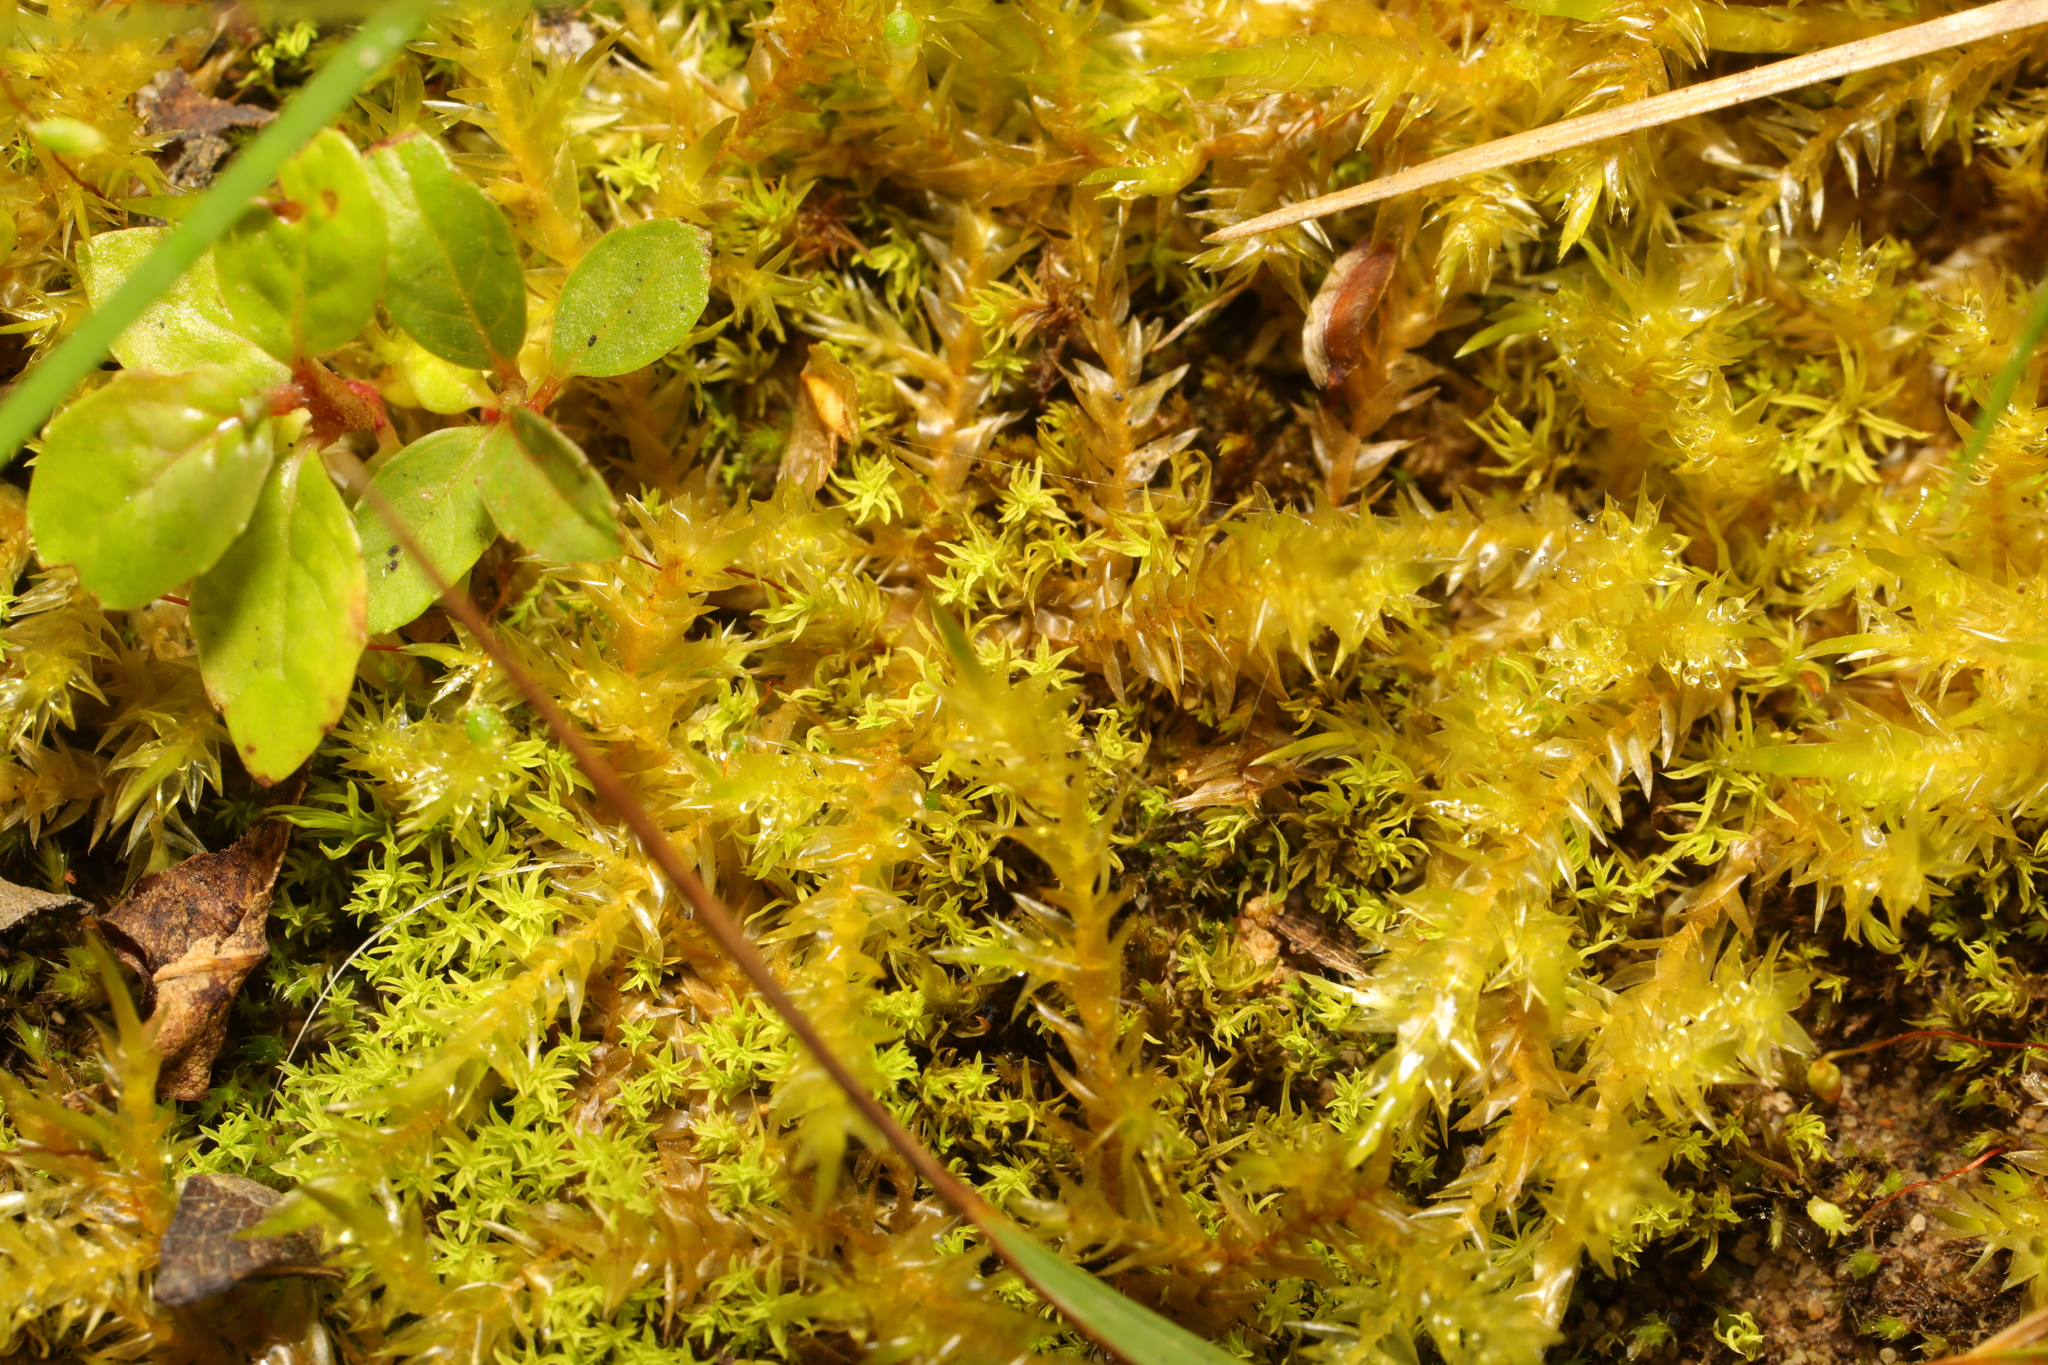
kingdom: Plantae
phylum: Bryophyta
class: Bryopsida
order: Hypnales
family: Pylaisiaceae
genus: Calliergonella
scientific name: Calliergonella cuspidata
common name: Common large wetland moss
